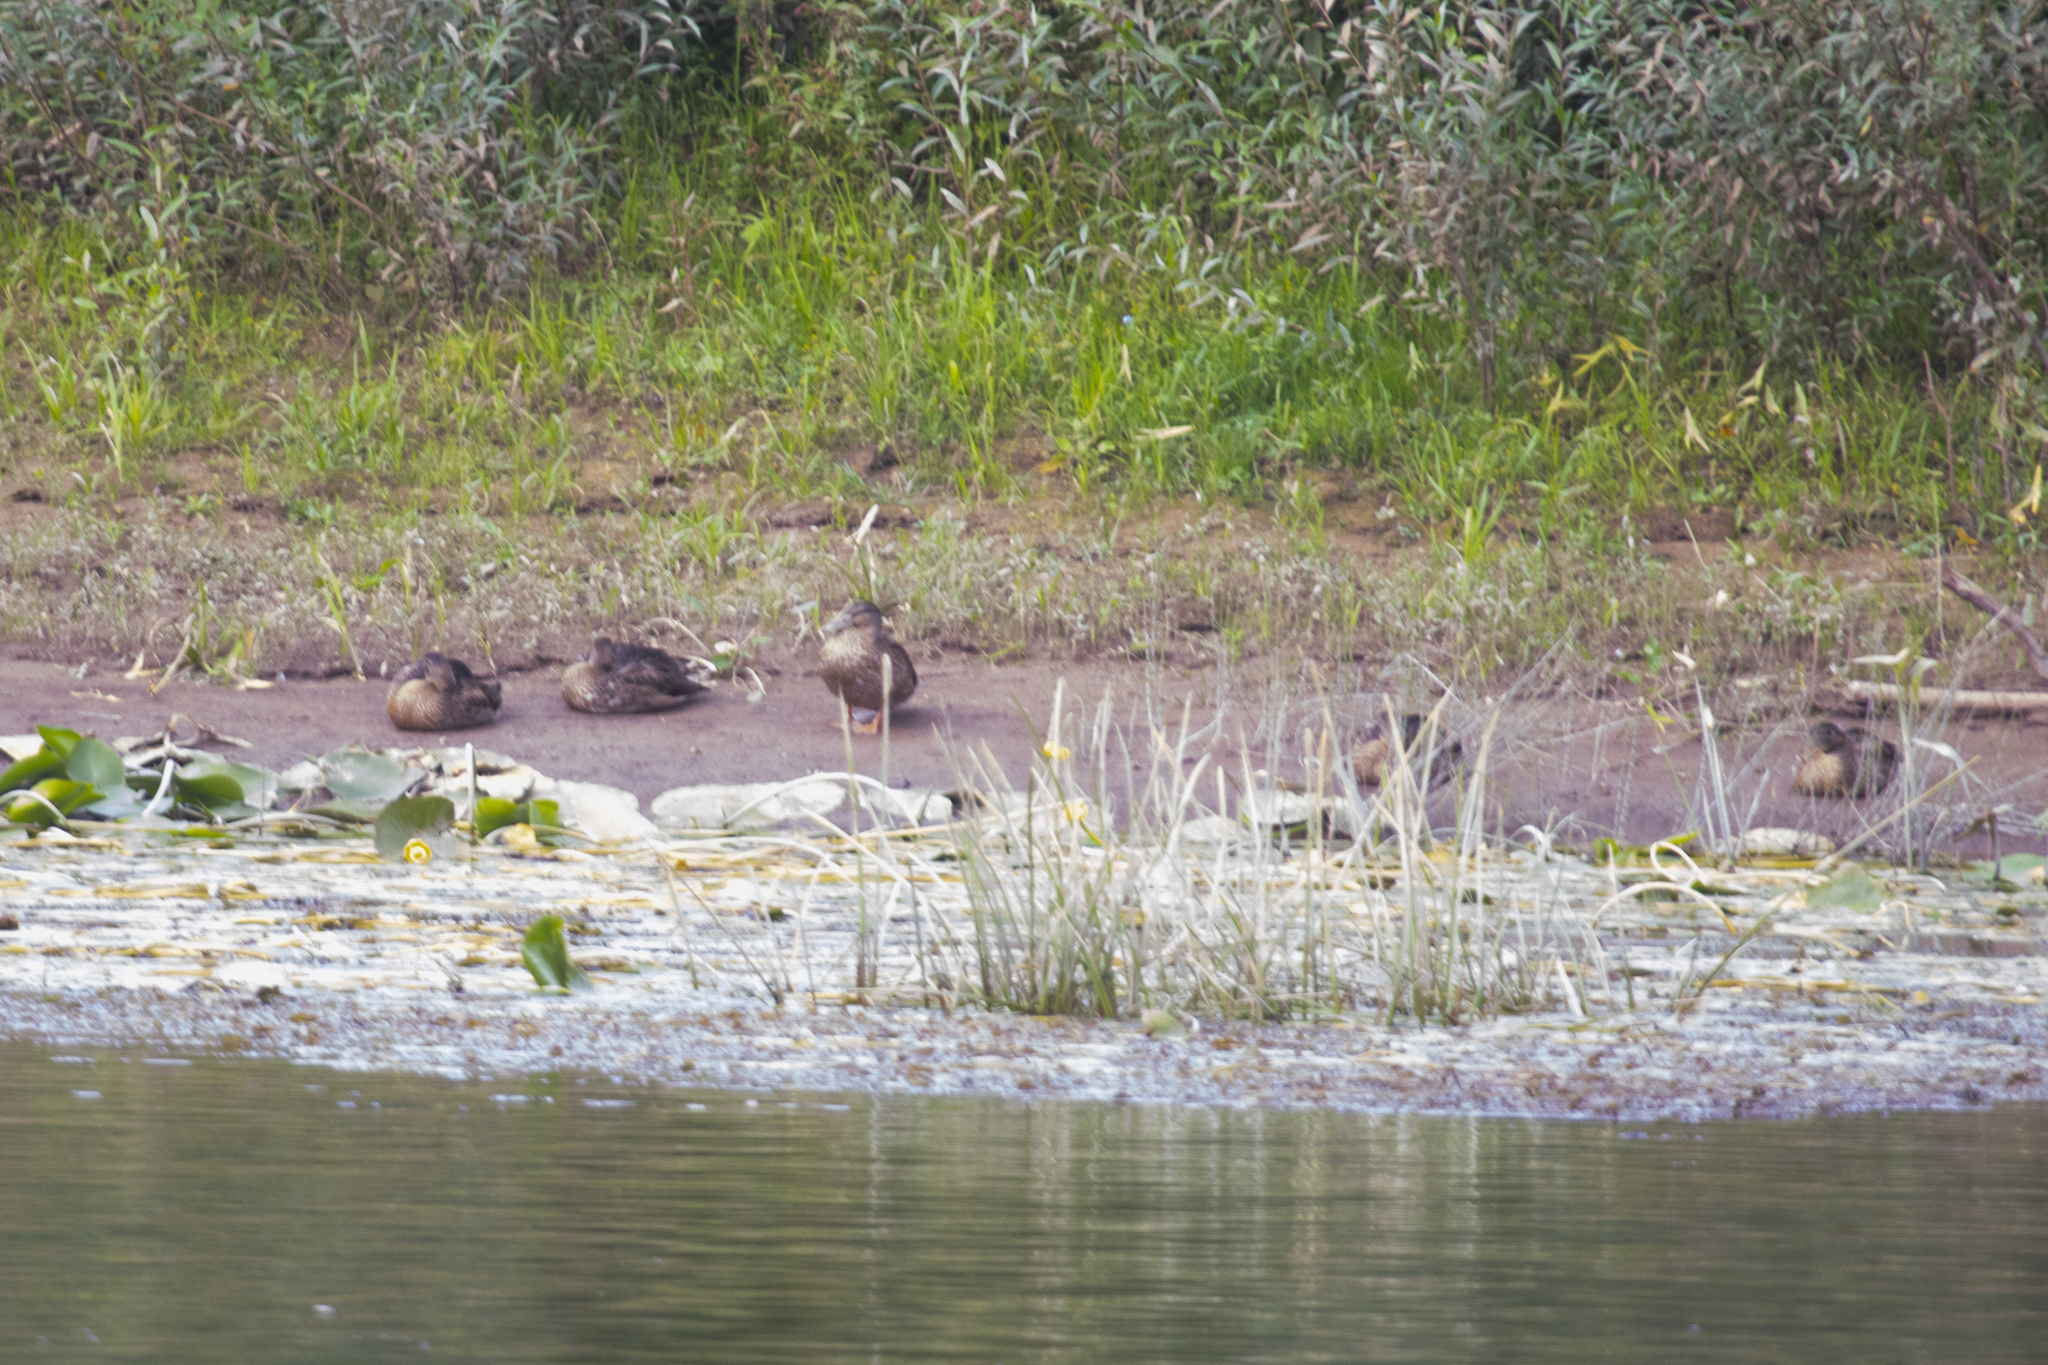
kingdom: Animalia
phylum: Chordata
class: Aves
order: Anseriformes
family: Anatidae
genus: Anas
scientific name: Anas platyrhynchos
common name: Mallard
